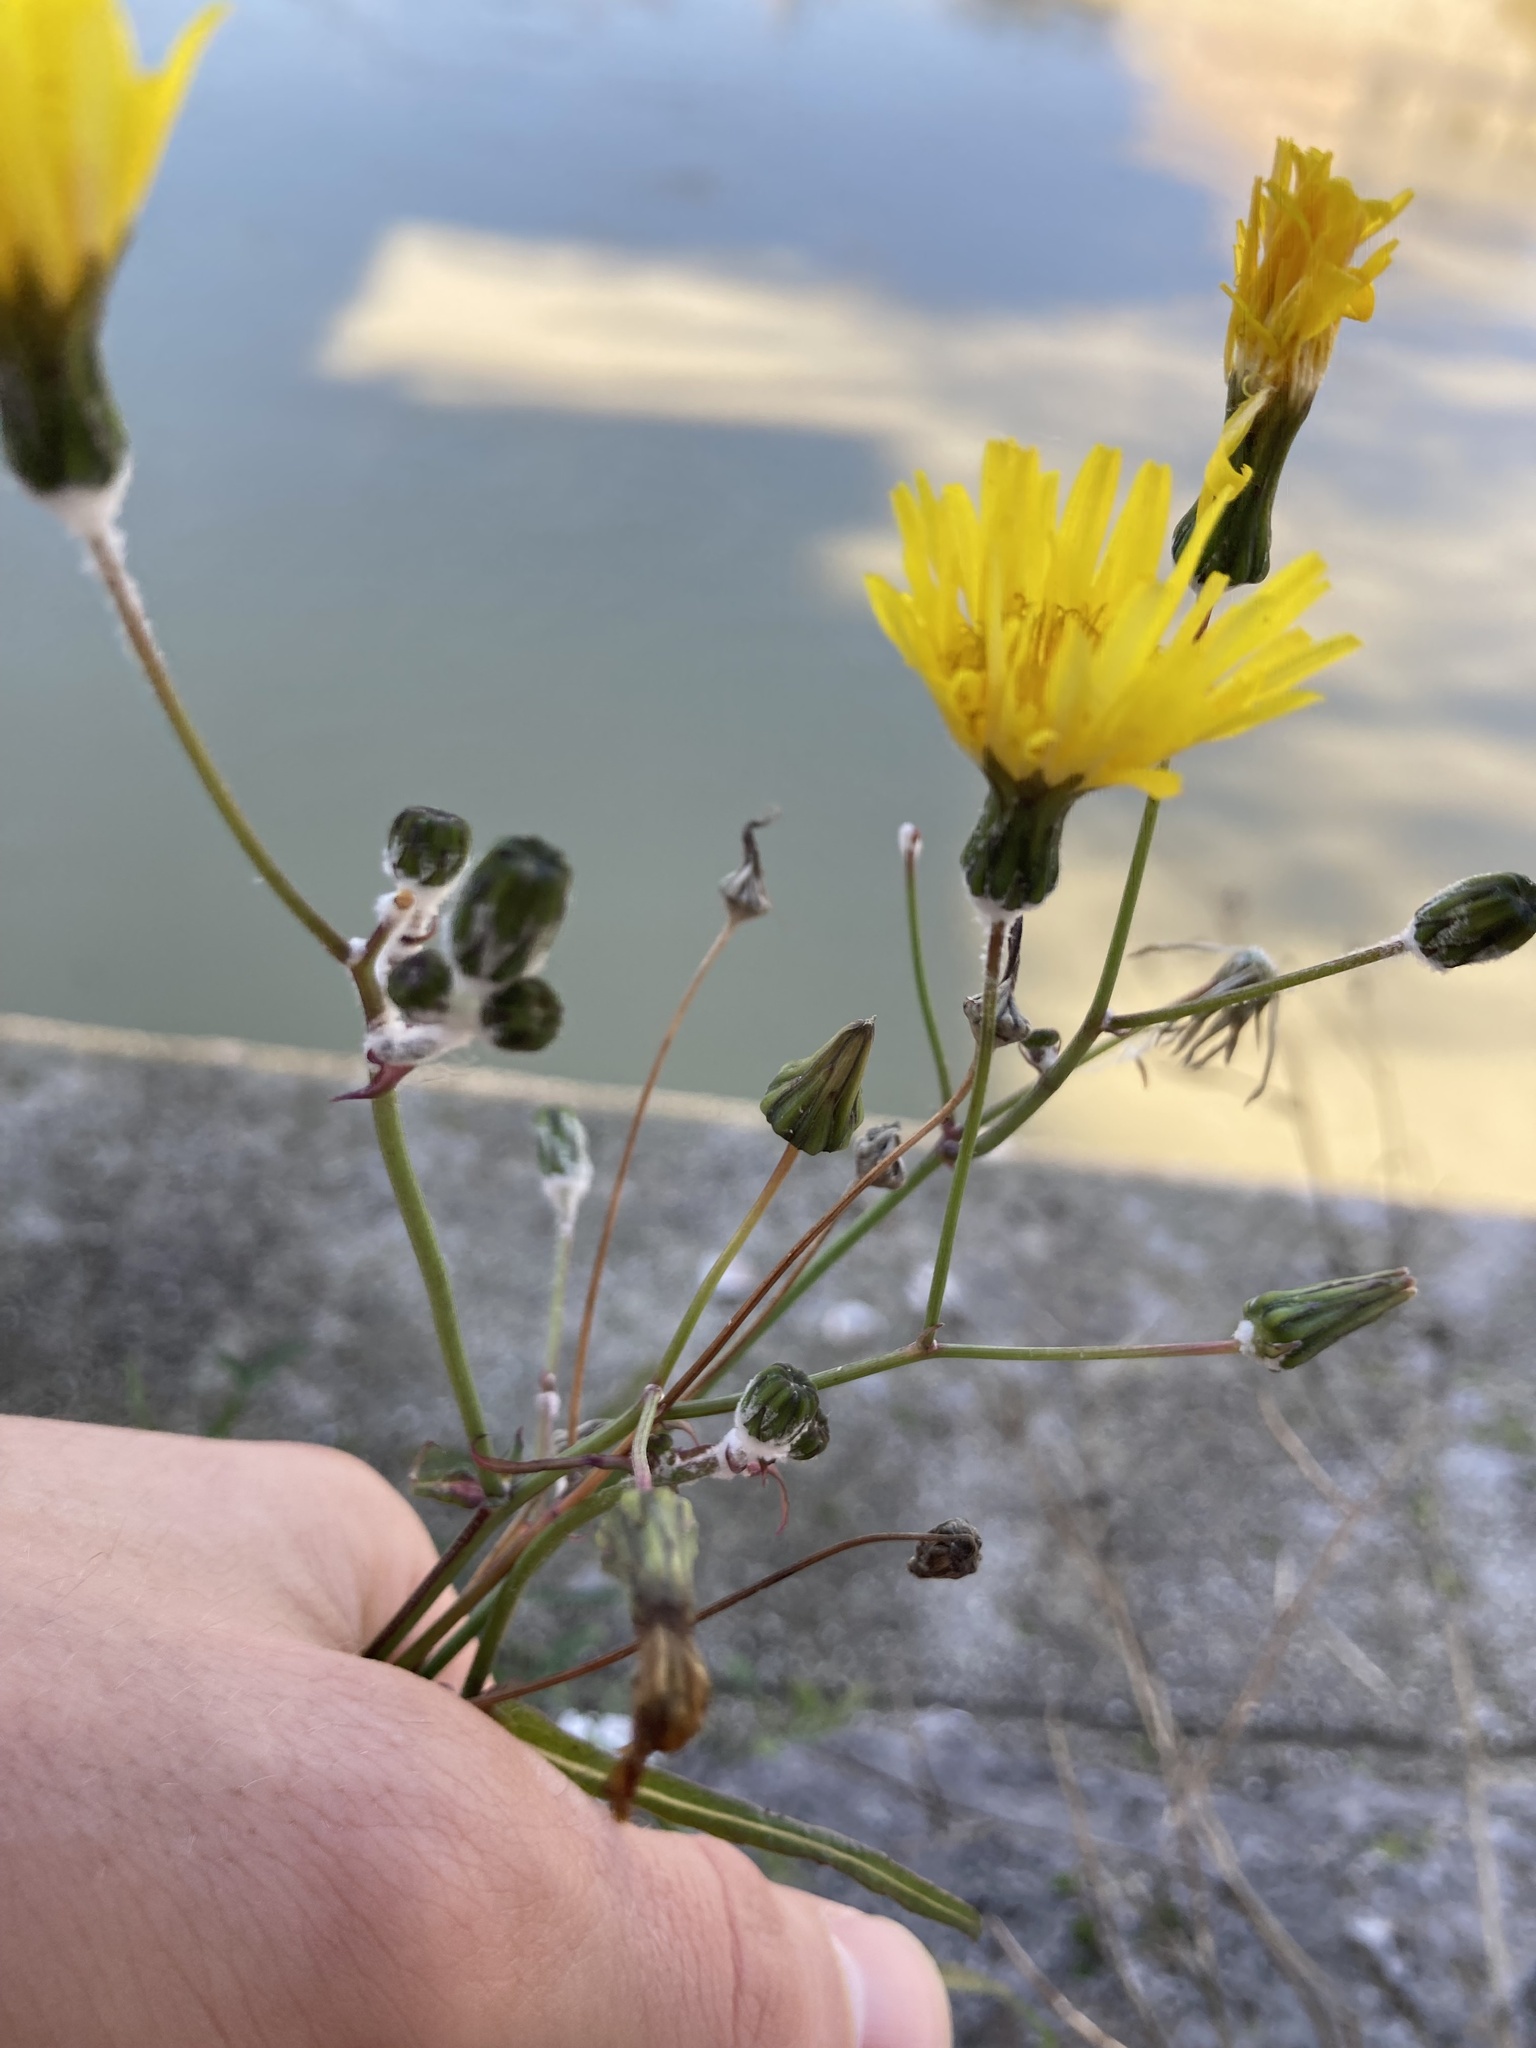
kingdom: Plantae
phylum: Tracheophyta
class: Magnoliopsida
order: Asterales
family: Asteraceae
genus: Sonchus
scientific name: Sonchus tenerrimus
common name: Clammy sowthistle
